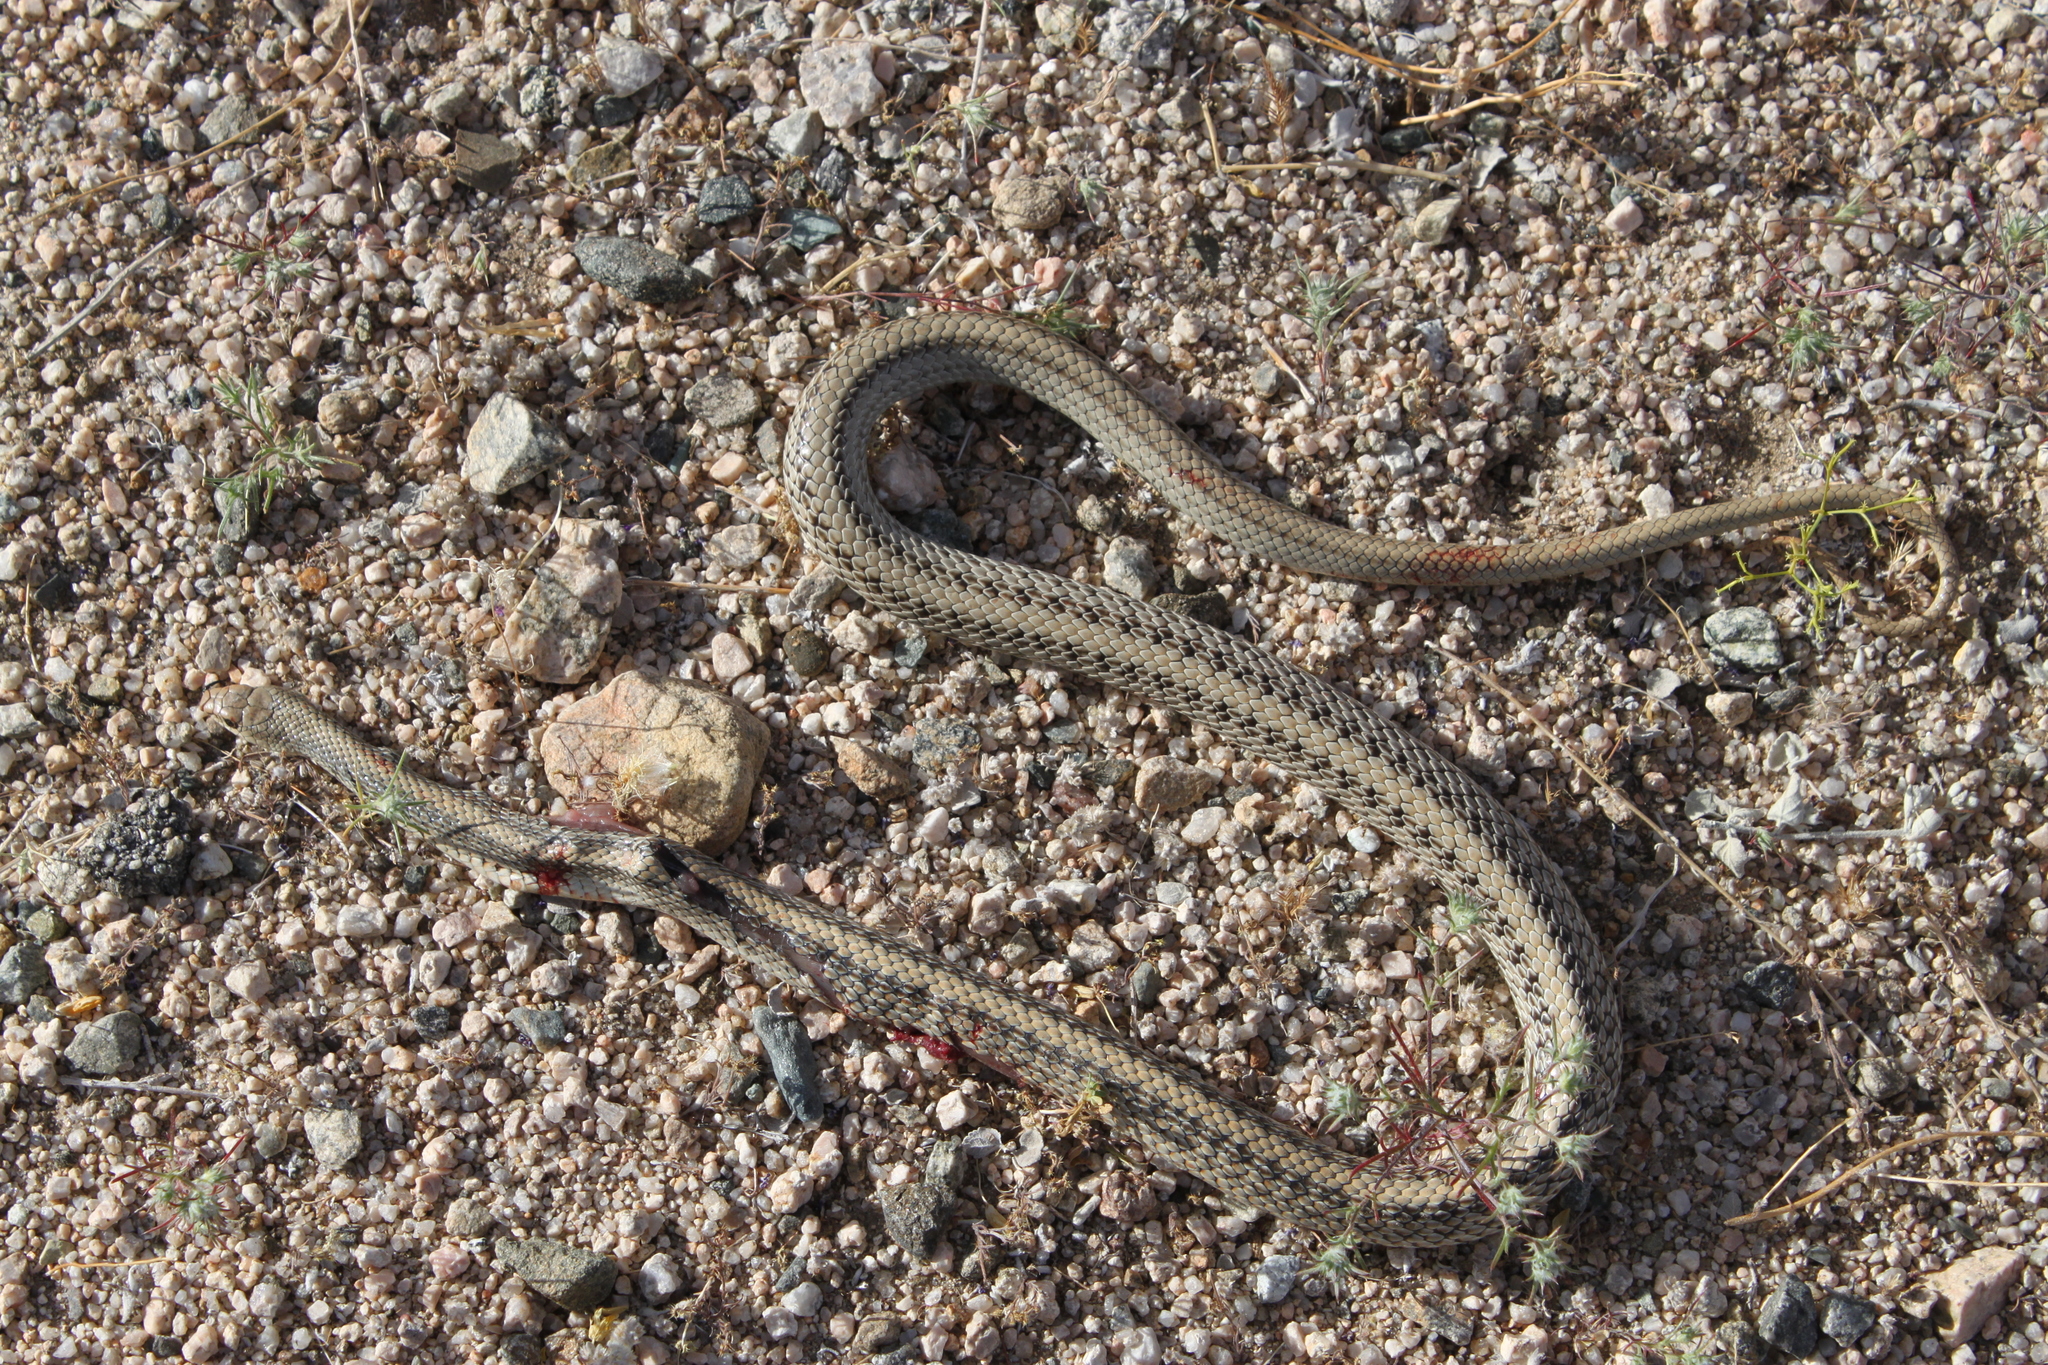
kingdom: Animalia
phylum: Chordata
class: Squamata
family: Colubridae
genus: Salvadora
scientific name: Salvadora hexalepis
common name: Western patchnose snake
